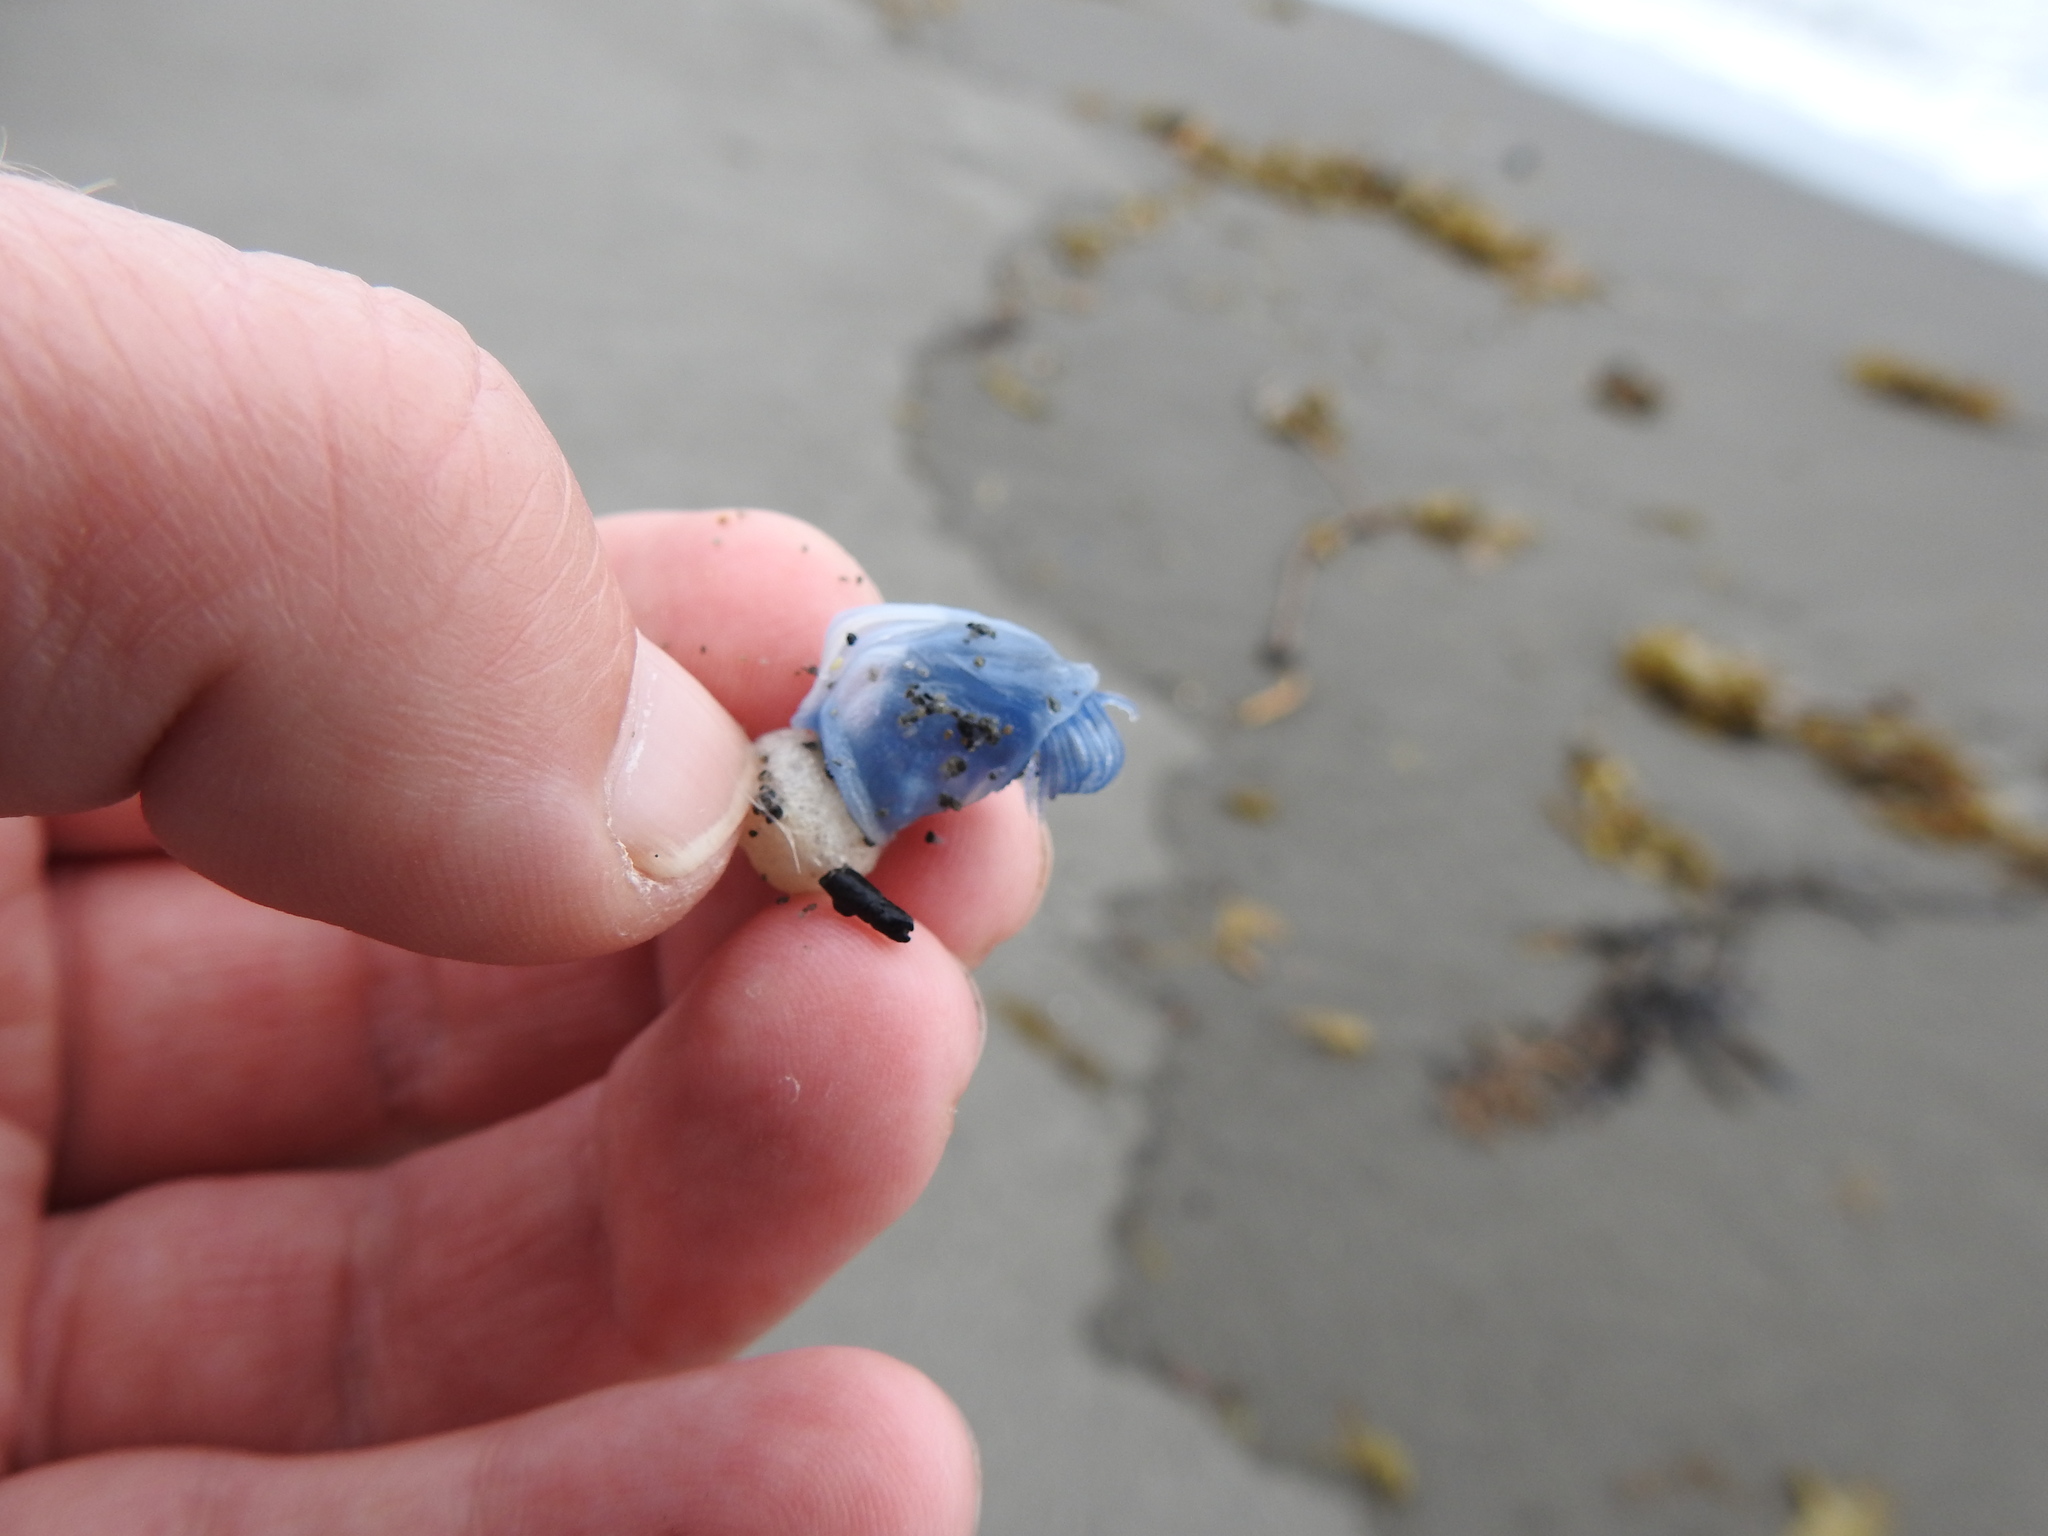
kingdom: Animalia
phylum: Arthropoda
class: Maxillopoda
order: Pedunculata
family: Lepadidae
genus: Dosima
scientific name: Dosima fascicularis
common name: Buoy barnacle
